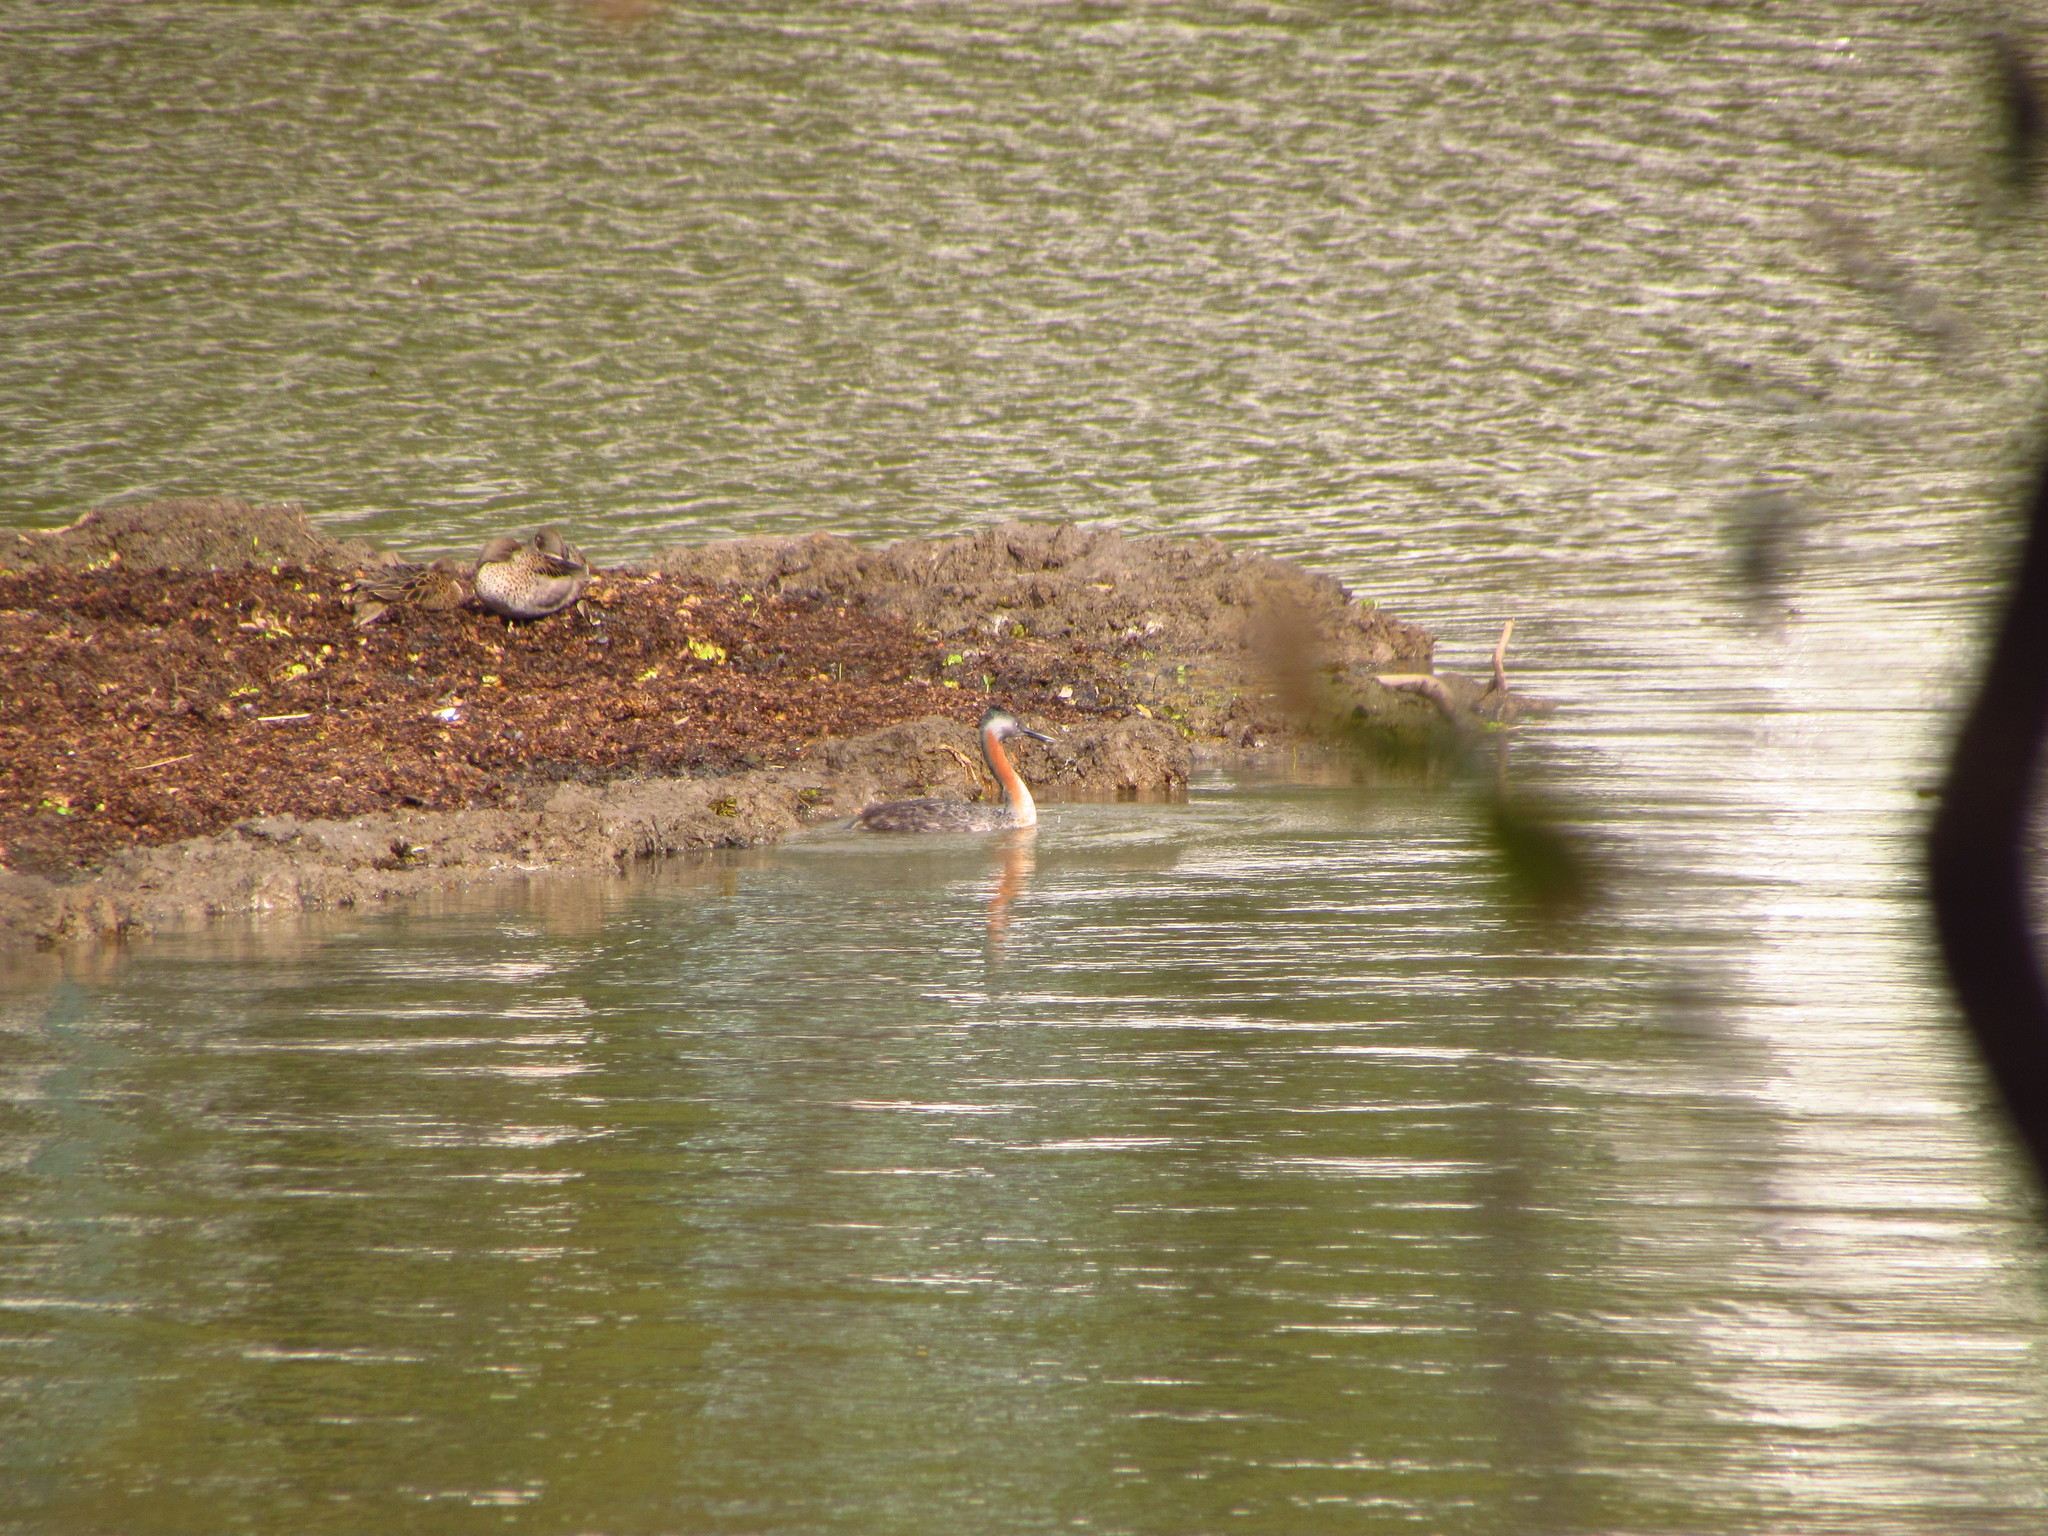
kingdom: Animalia
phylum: Chordata
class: Aves
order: Podicipediformes
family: Podicipedidae
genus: Podiceps
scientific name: Podiceps major
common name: Great grebe
